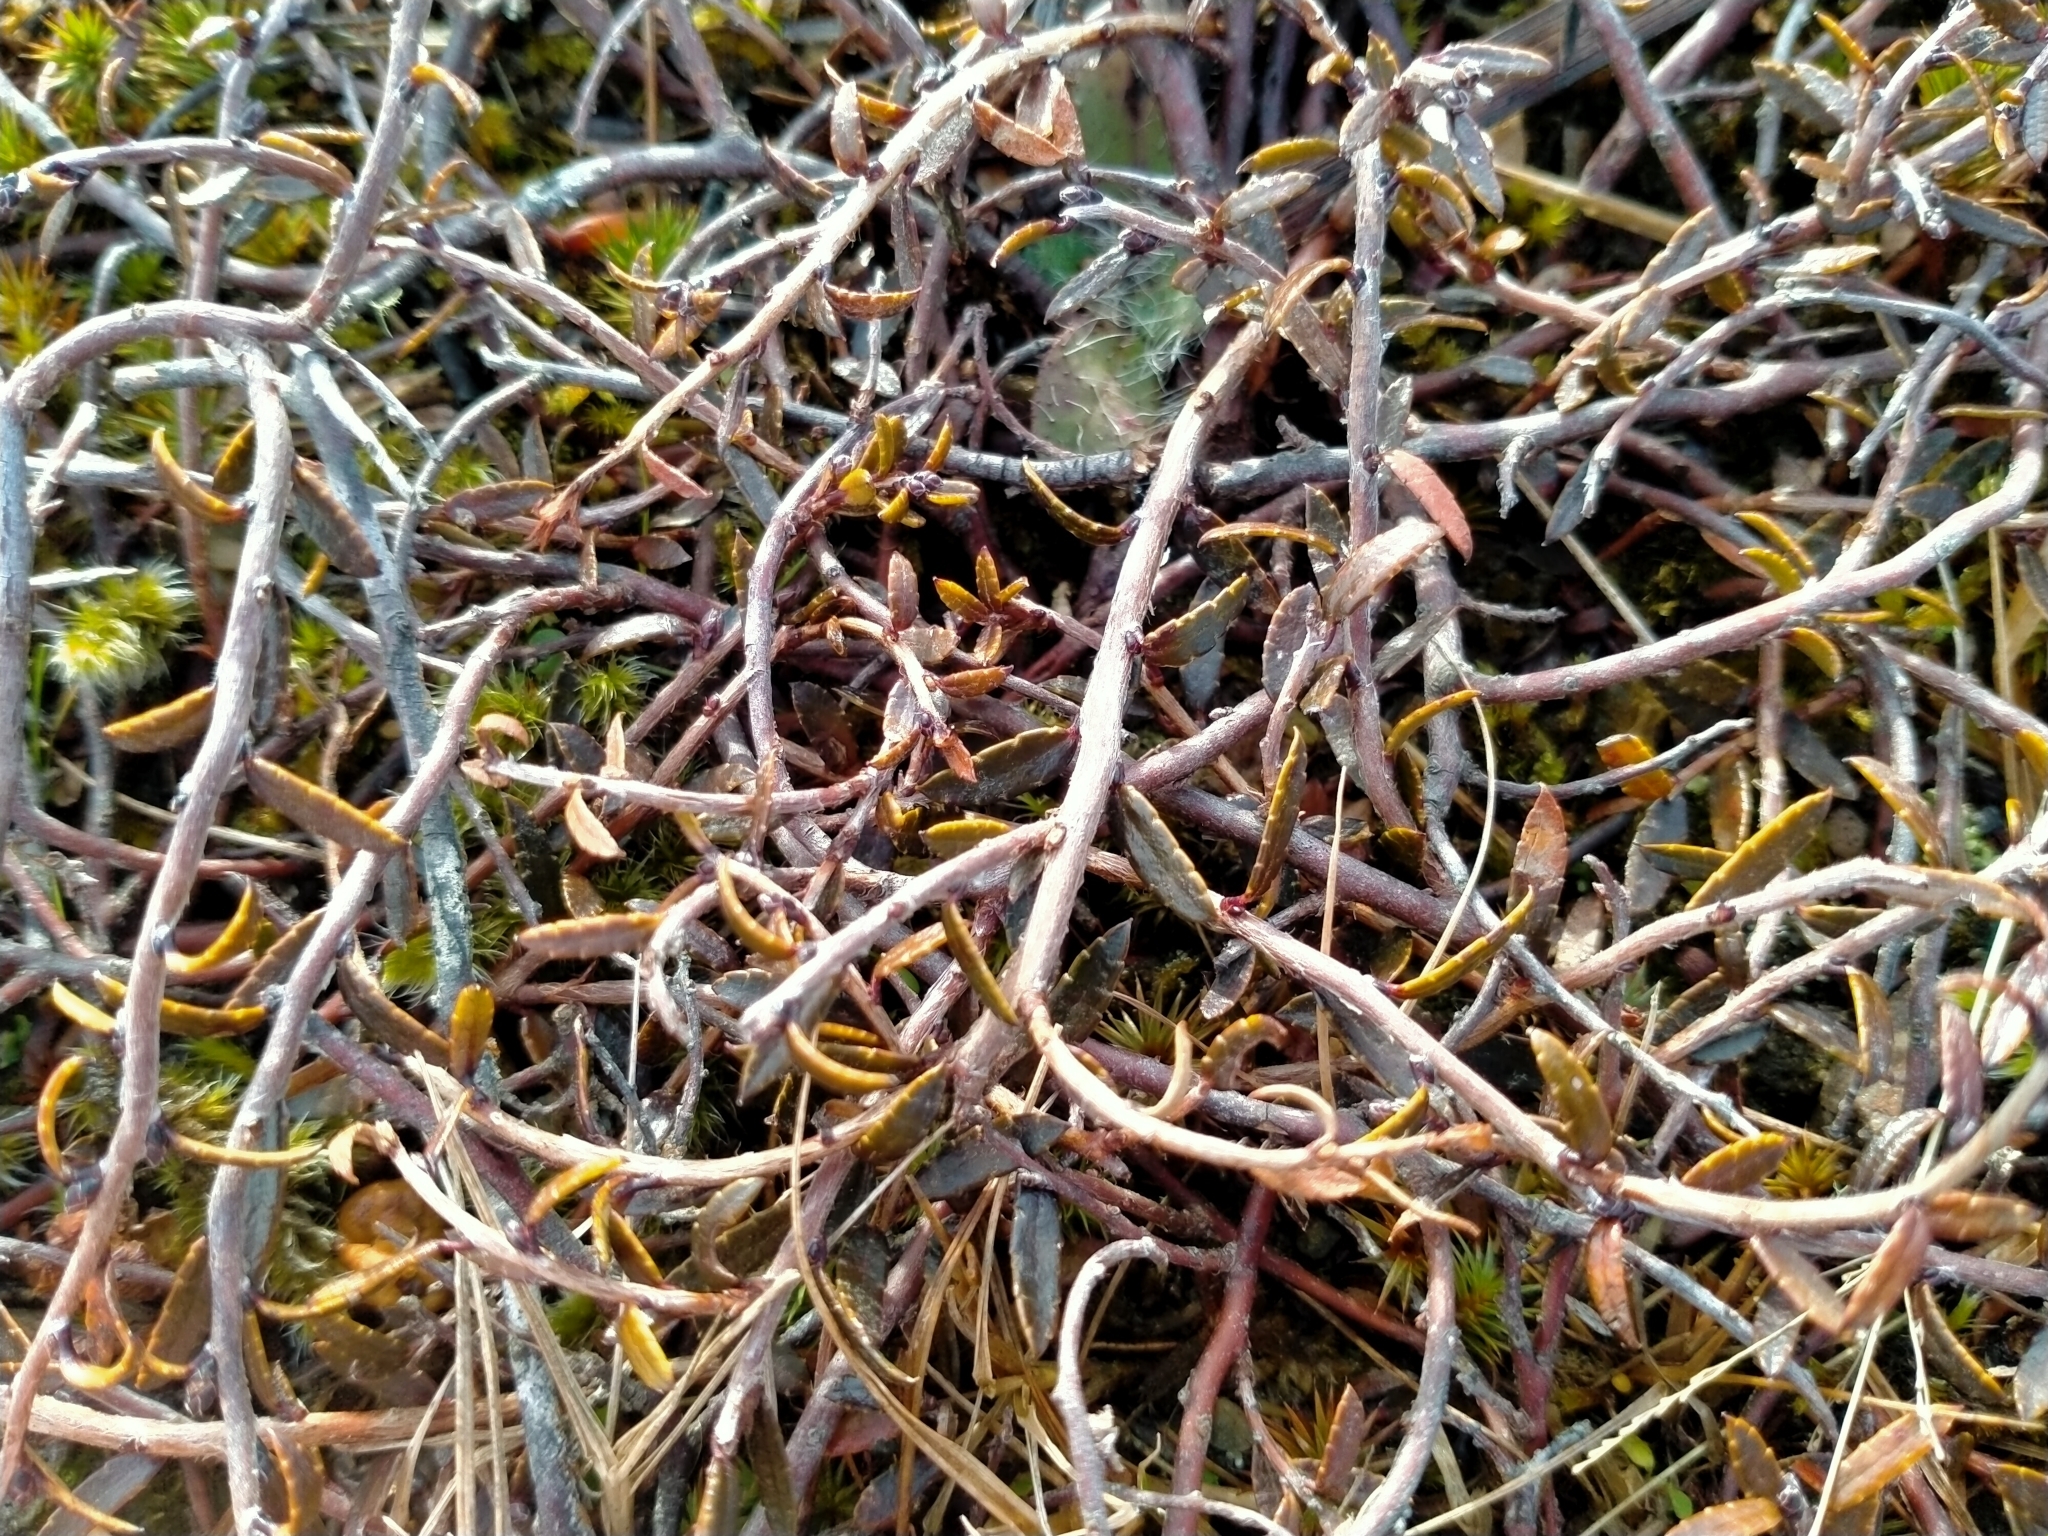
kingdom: Plantae
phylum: Tracheophyta
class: Magnoliopsida
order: Ericales
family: Ericaceae
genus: Gaultheria
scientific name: Gaultheria macrostigma
